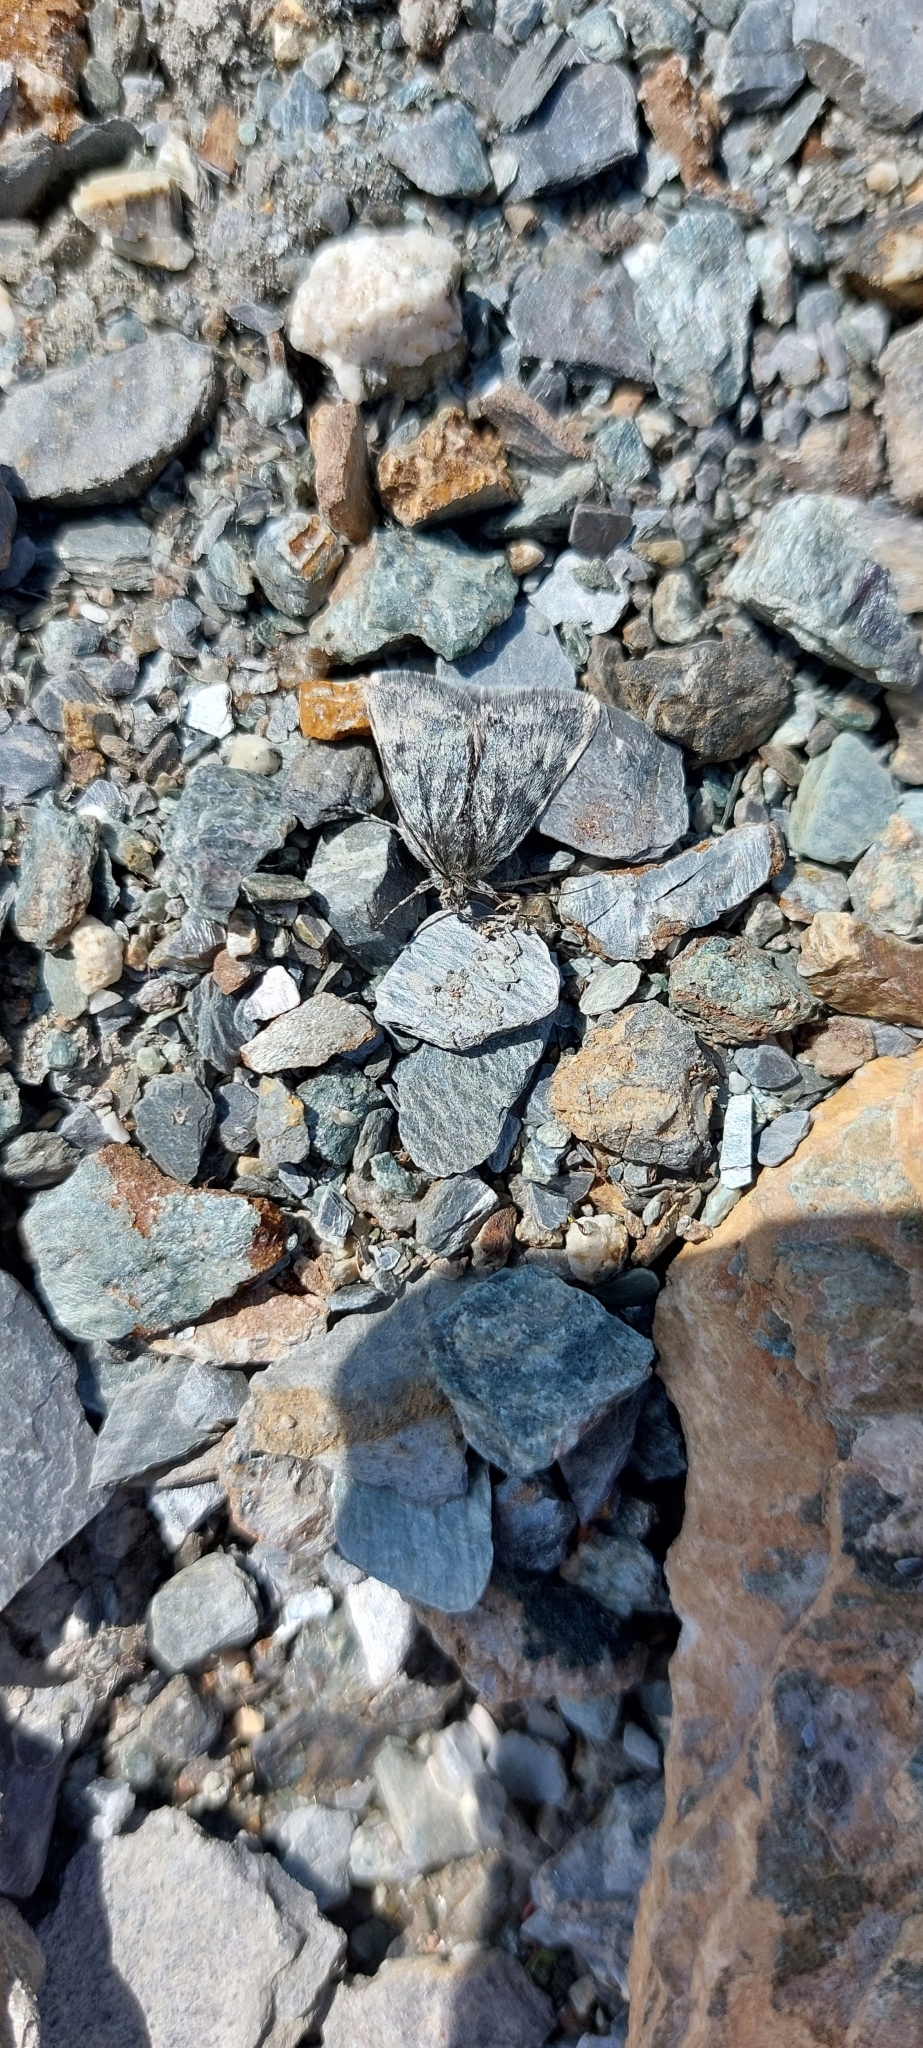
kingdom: Animalia
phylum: Arthropoda
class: Insecta
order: Lepidoptera
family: Crambidae
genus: Metaxmeste
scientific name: Metaxmeste phrygialis
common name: Black mountain pearl
